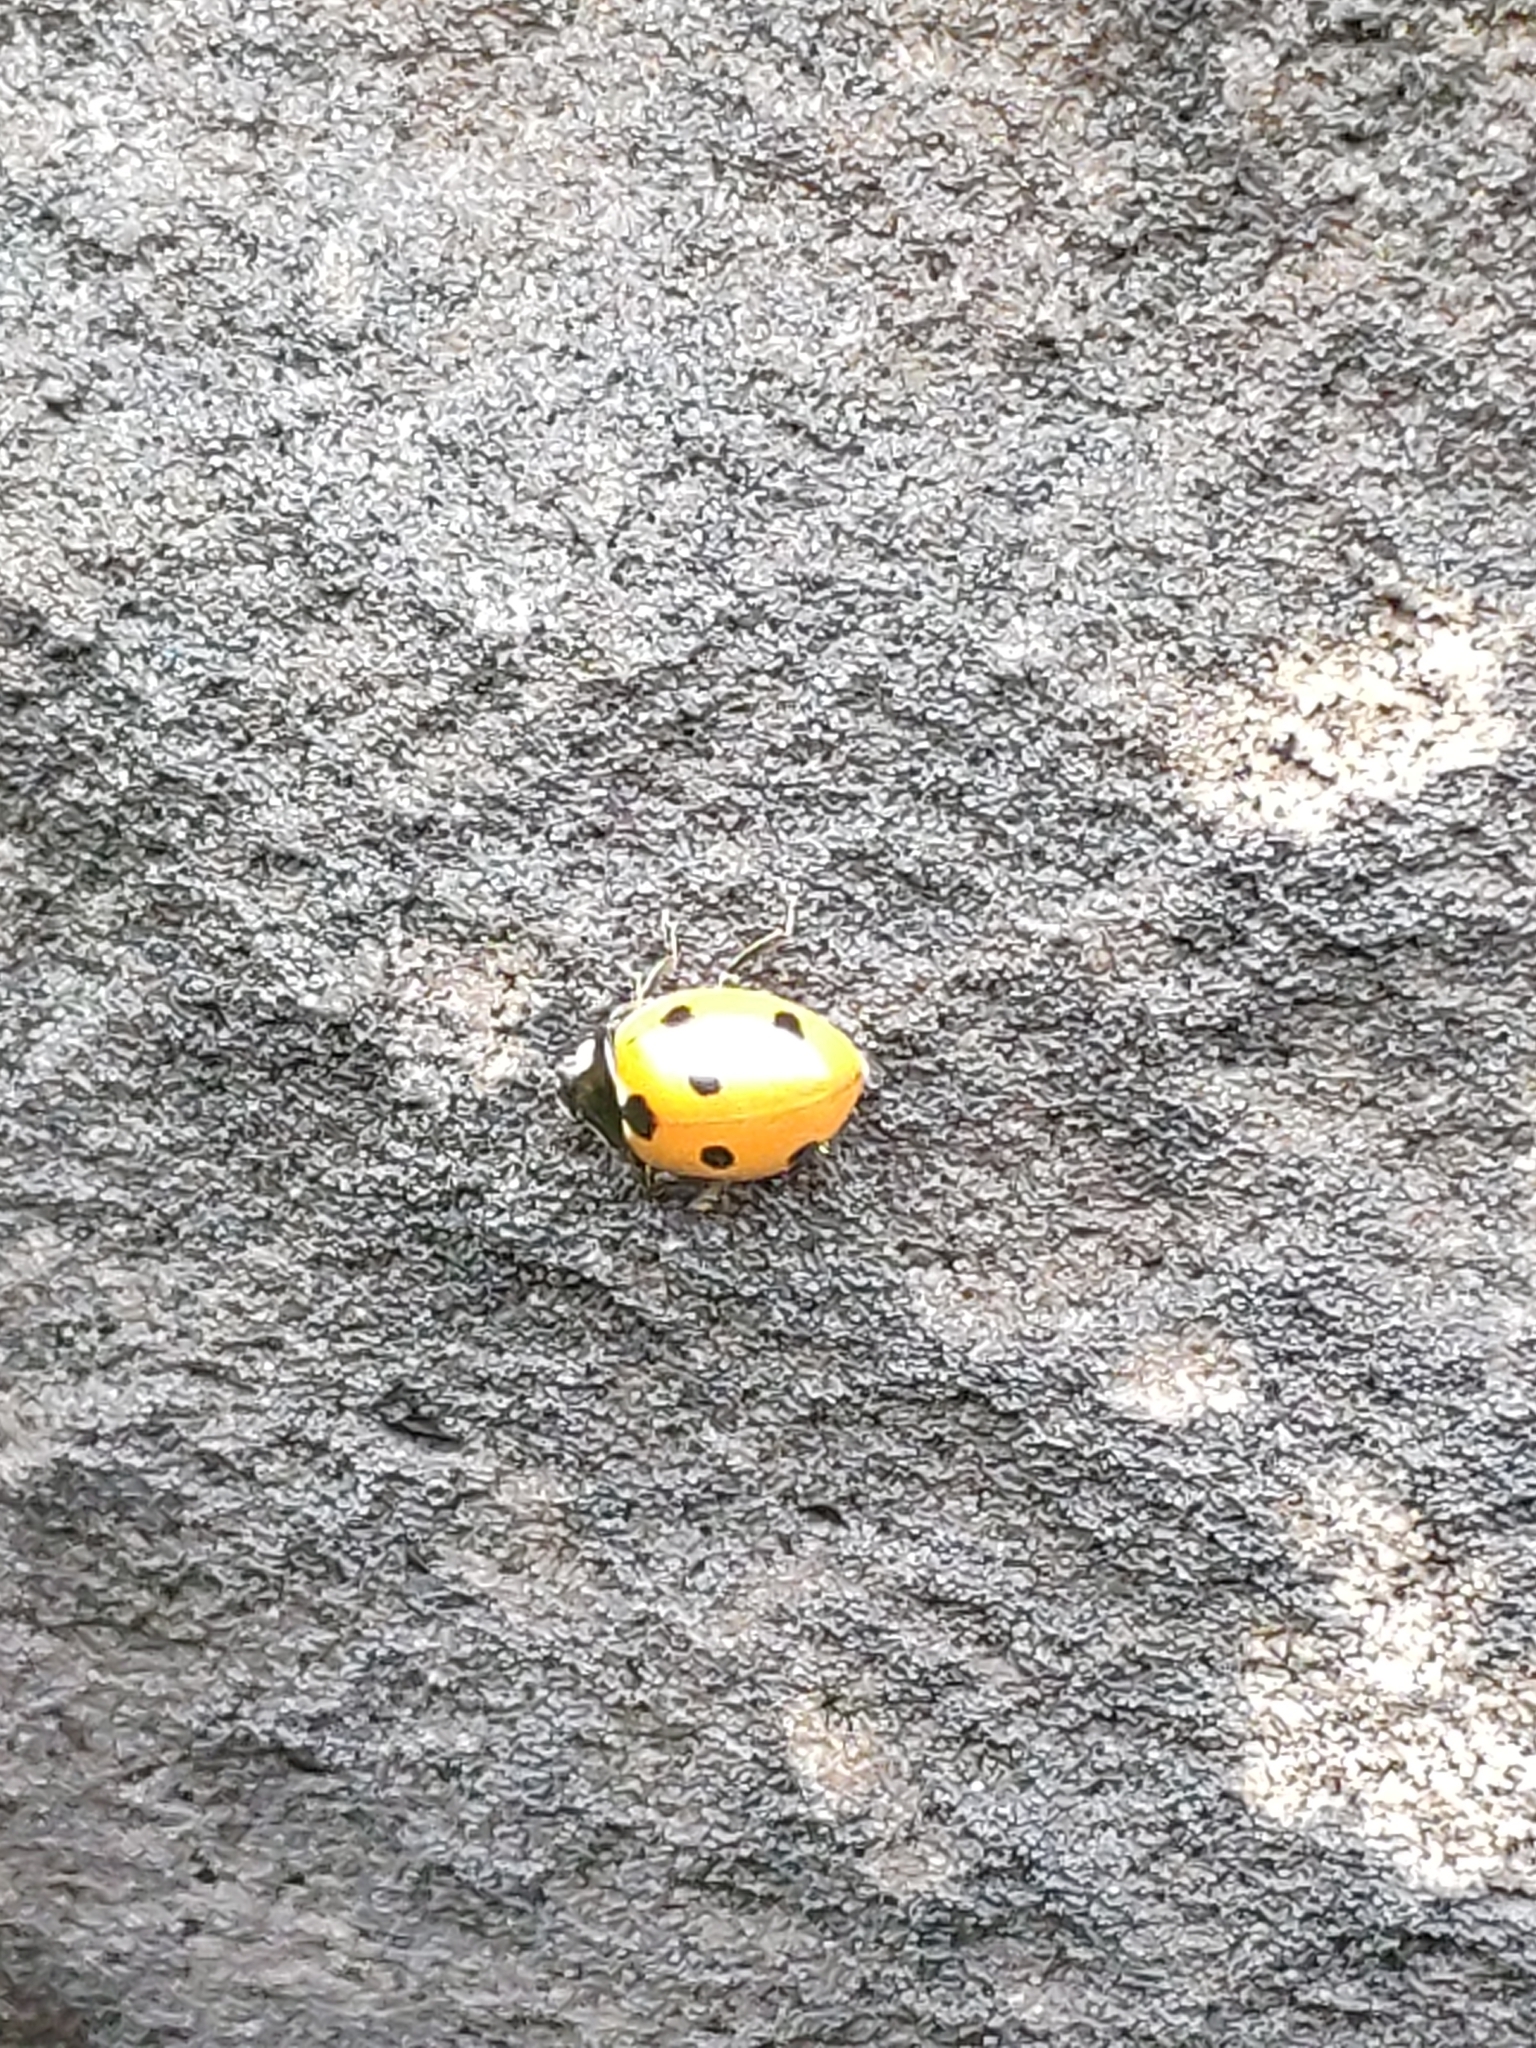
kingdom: Animalia
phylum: Arthropoda
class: Insecta
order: Coleoptera
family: Coccinellidae
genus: Coccinella
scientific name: Coccinella septempunctata
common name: Sevenspotted lady beetle
